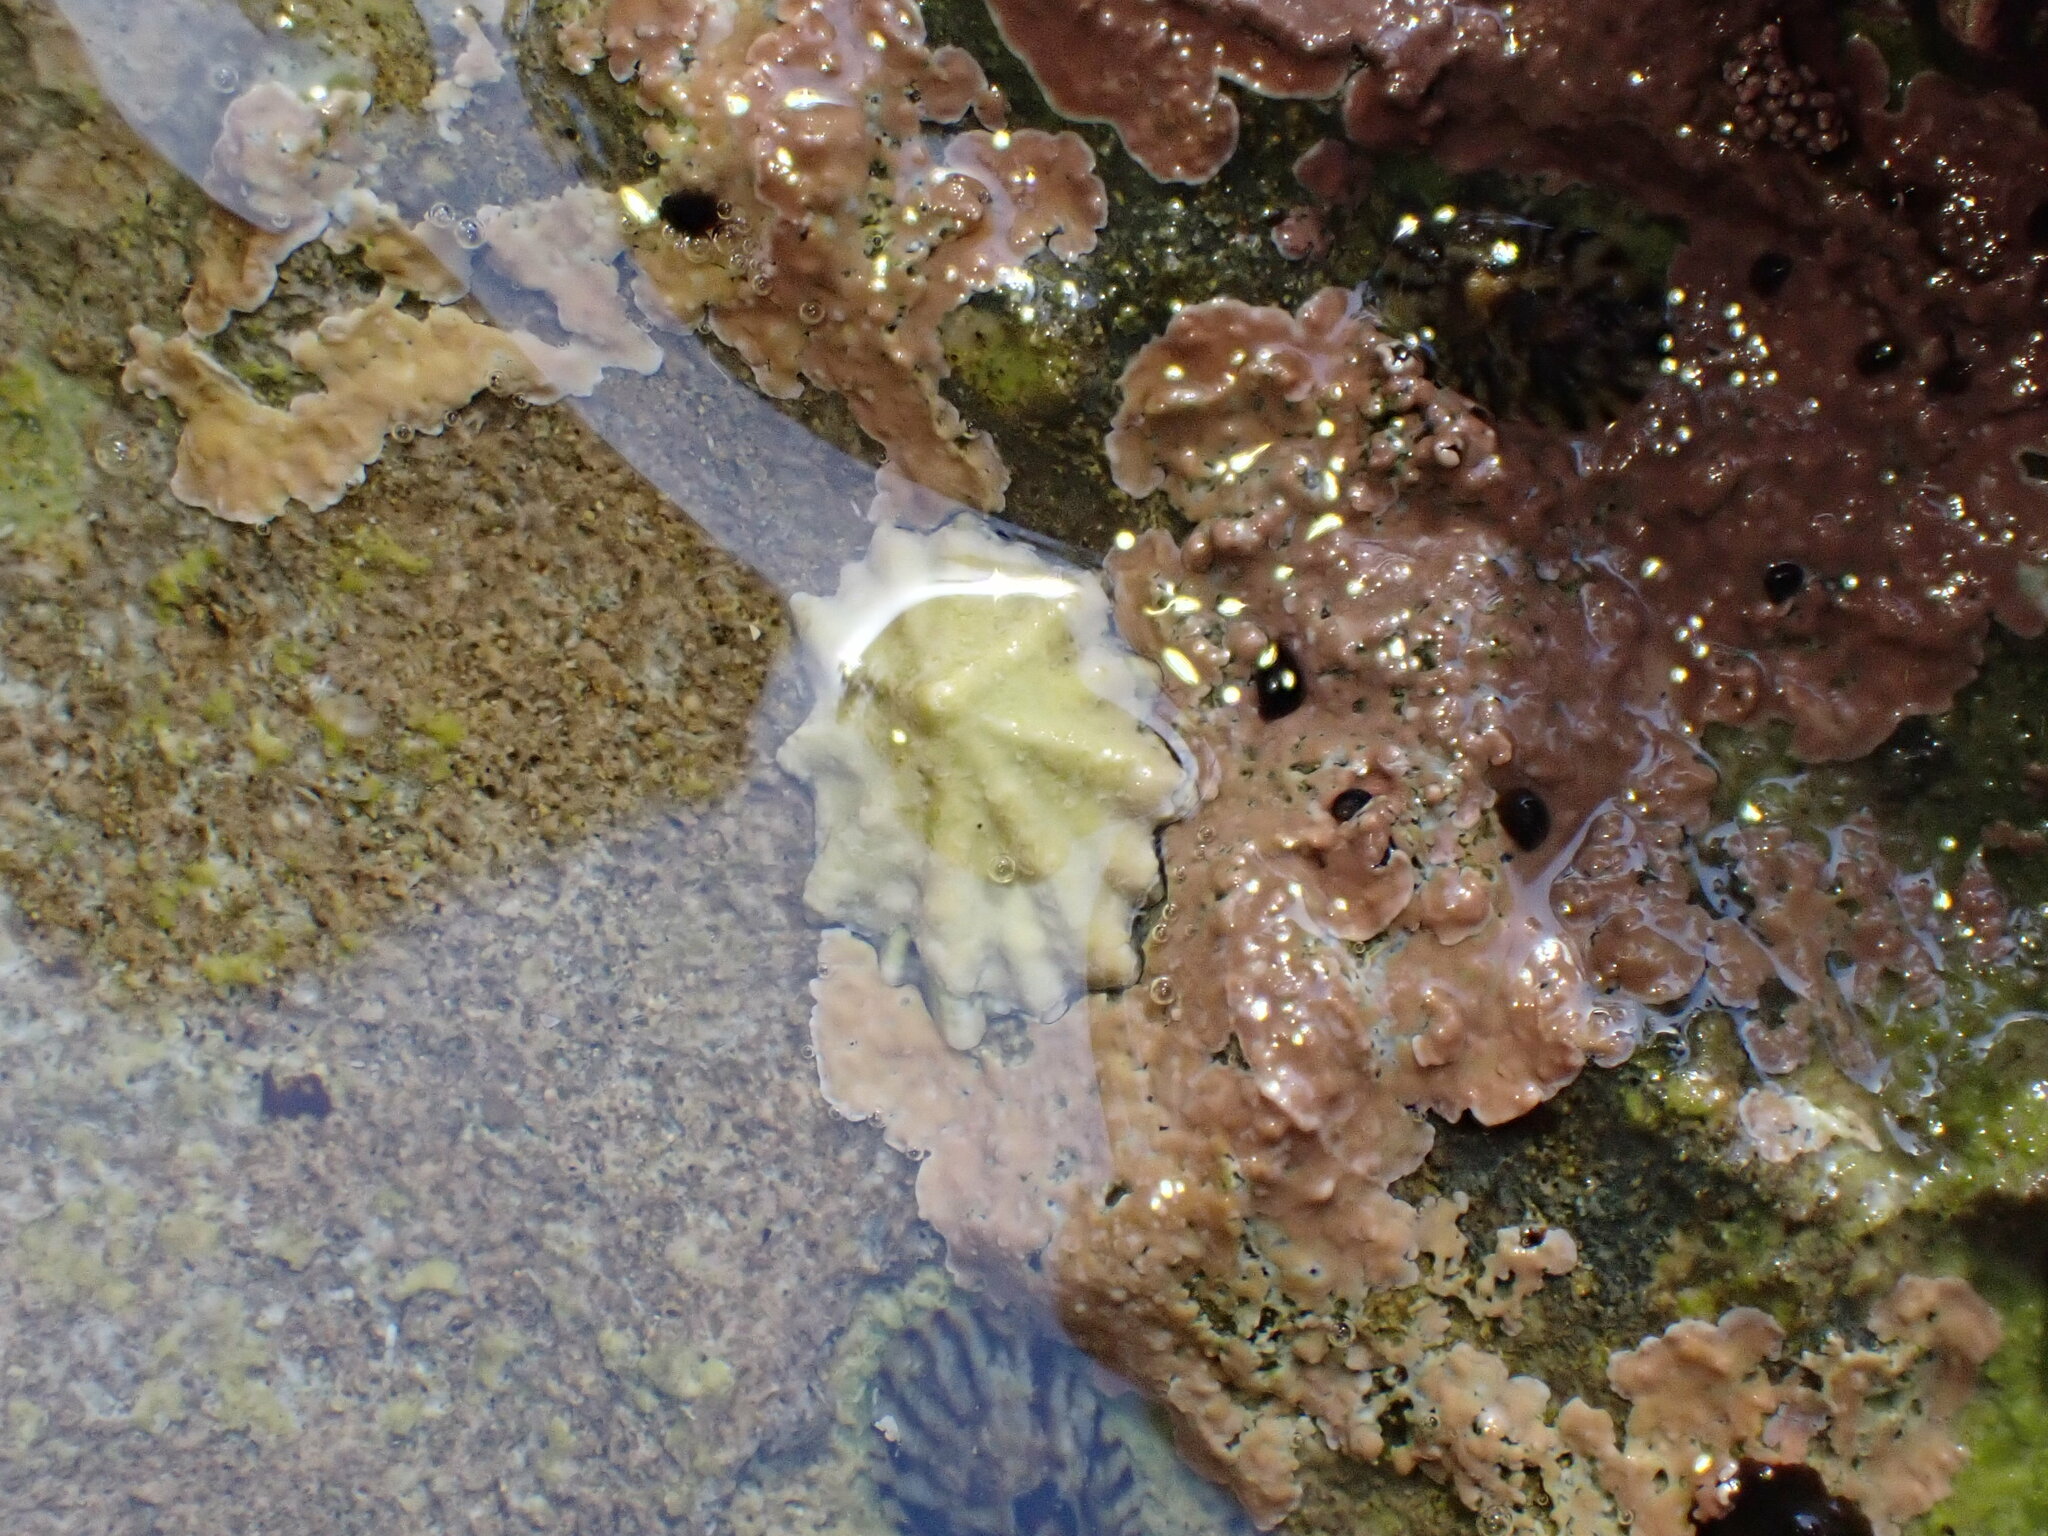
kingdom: Animalia
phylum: Mollusca
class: Gastropoda
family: Lottiidae
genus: Patelloida
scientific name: Patelloida corticata
